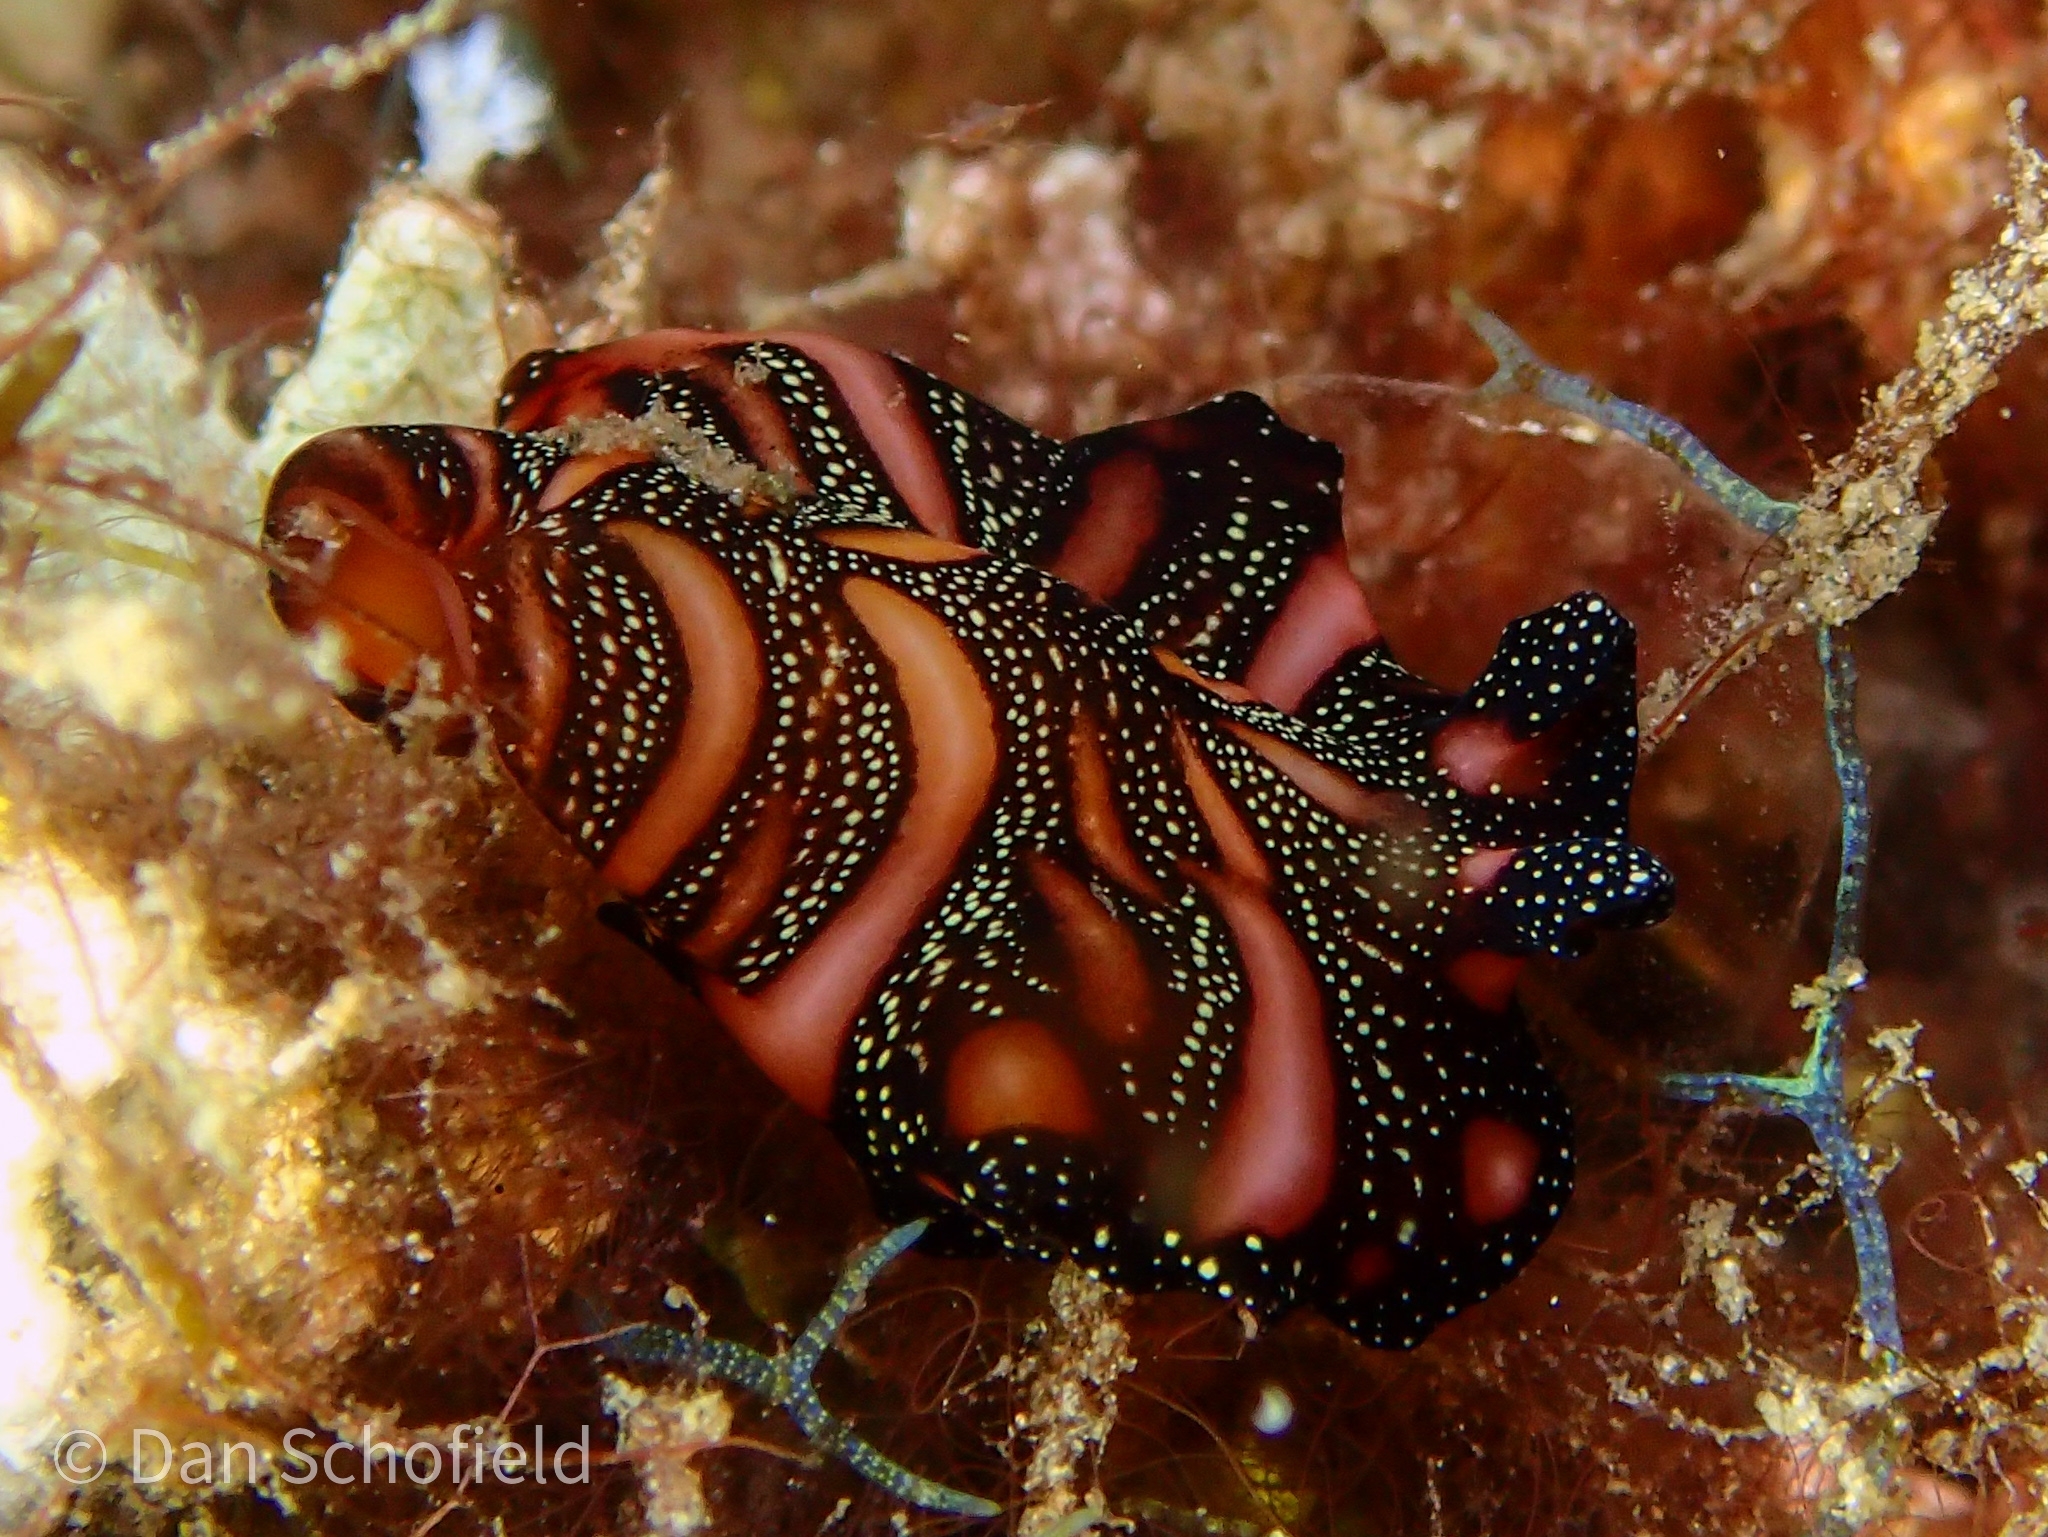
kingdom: Animalia
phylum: Platyhelminthes
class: Turbellaria
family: Pseudocerotidae
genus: Pseudobiceros
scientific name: Pseudobiceros bedfordi
